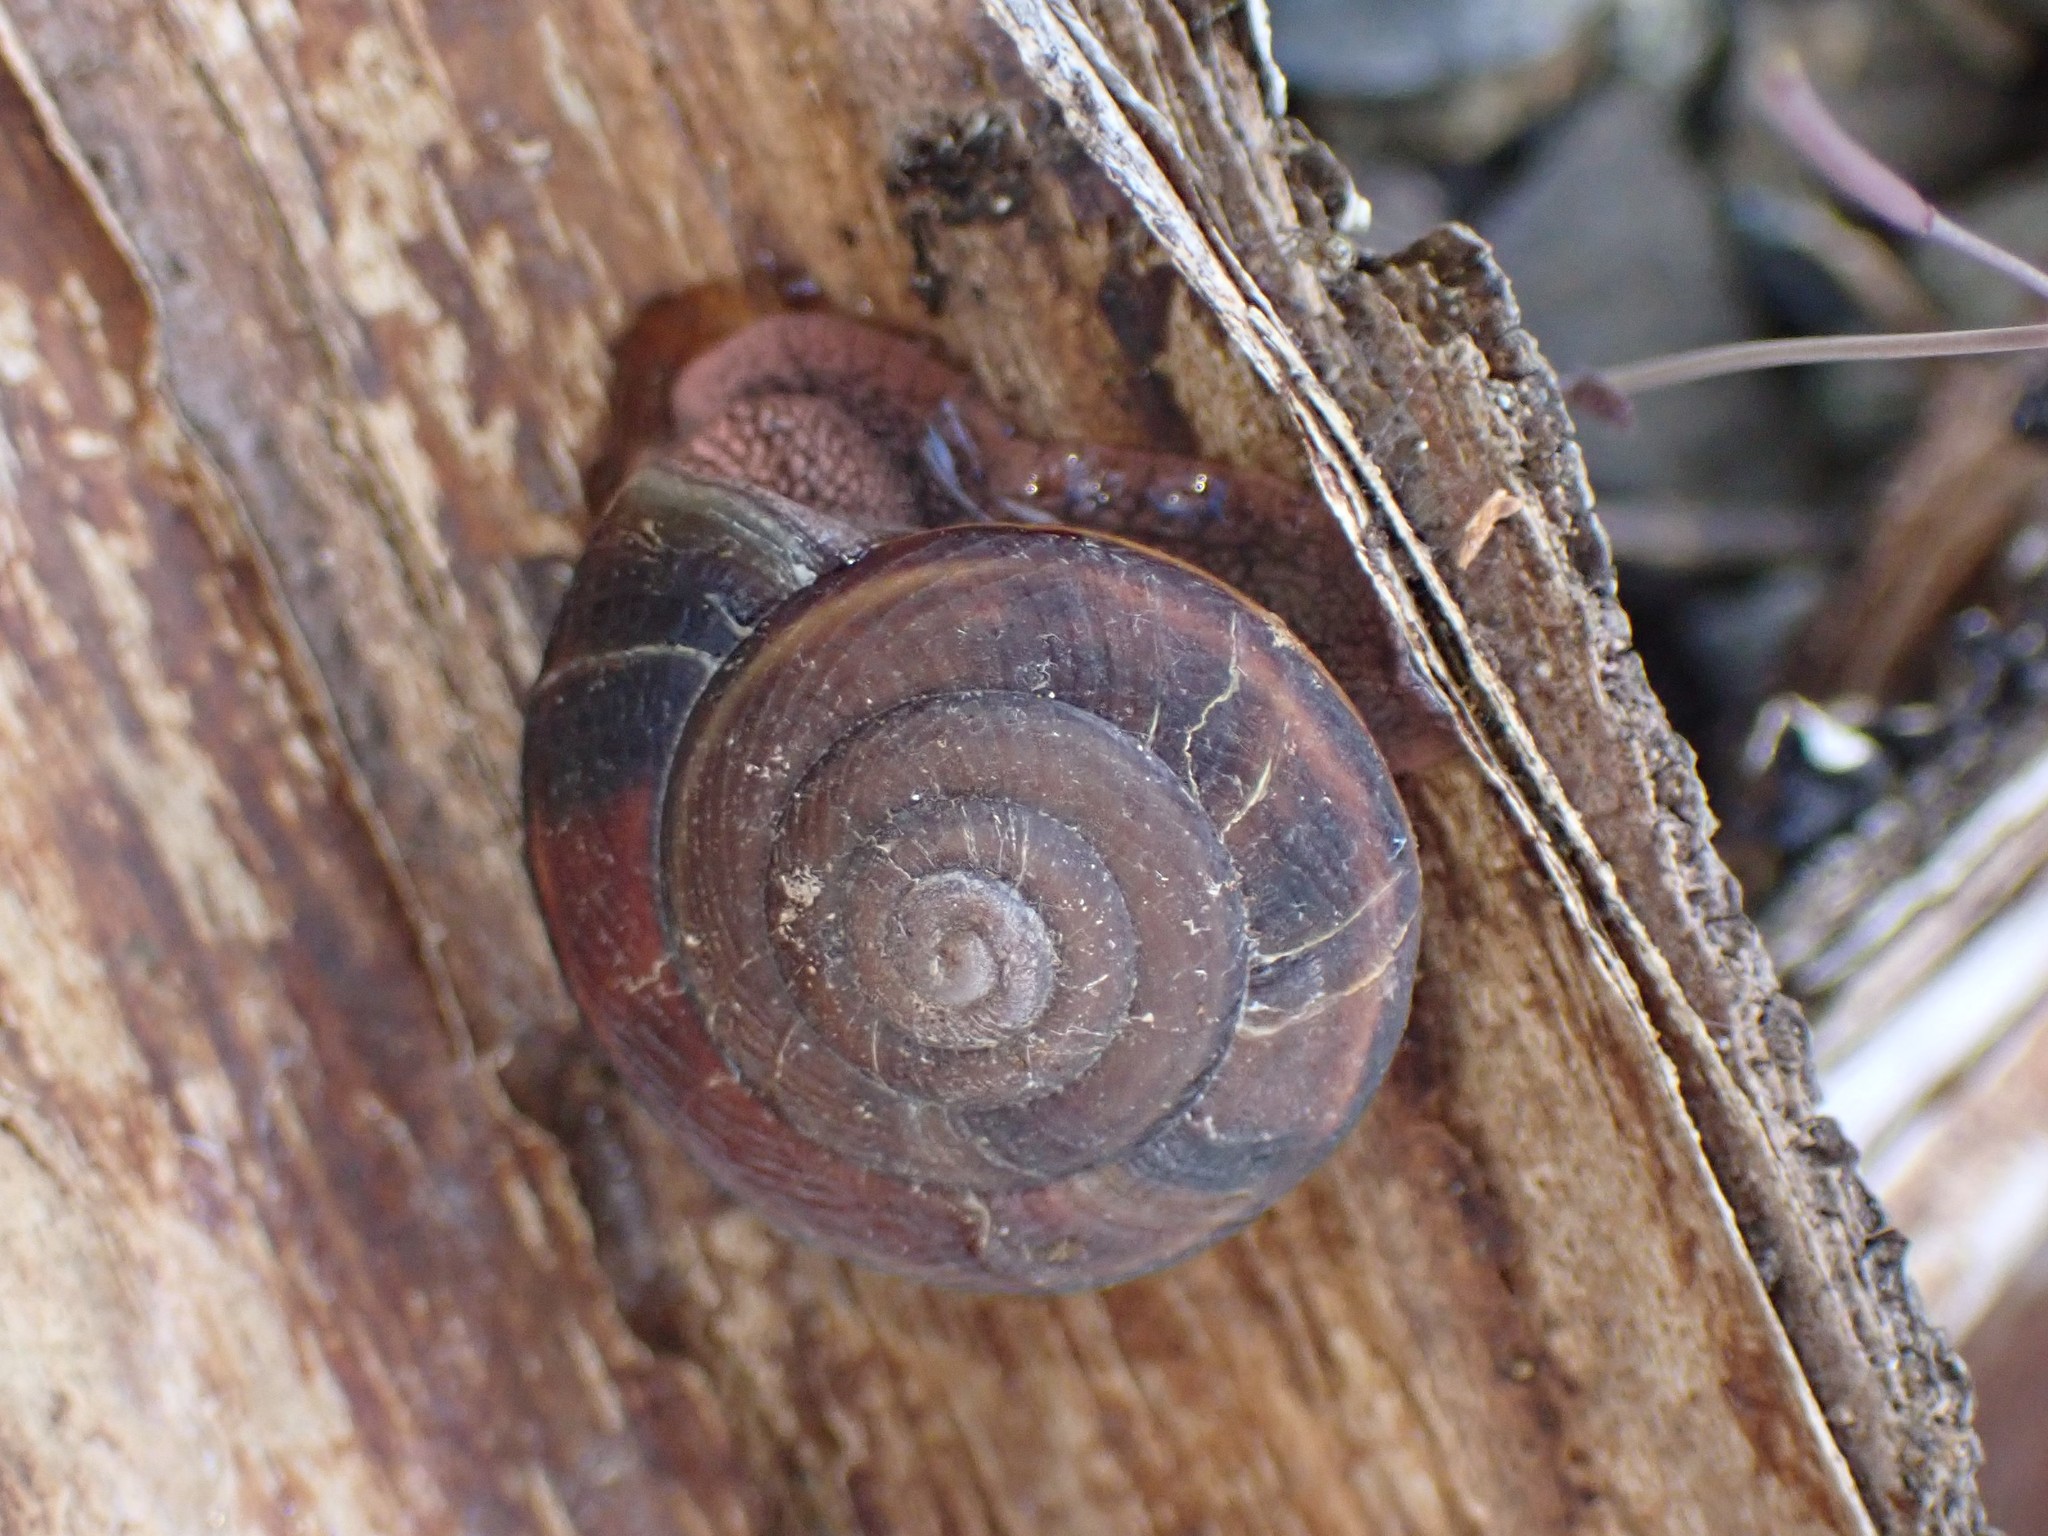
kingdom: Animalia
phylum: Mollusca
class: Gastropoda
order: Stylommatophora
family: Xanthonychidae
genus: Monadenia
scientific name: Monadenia fidelis
